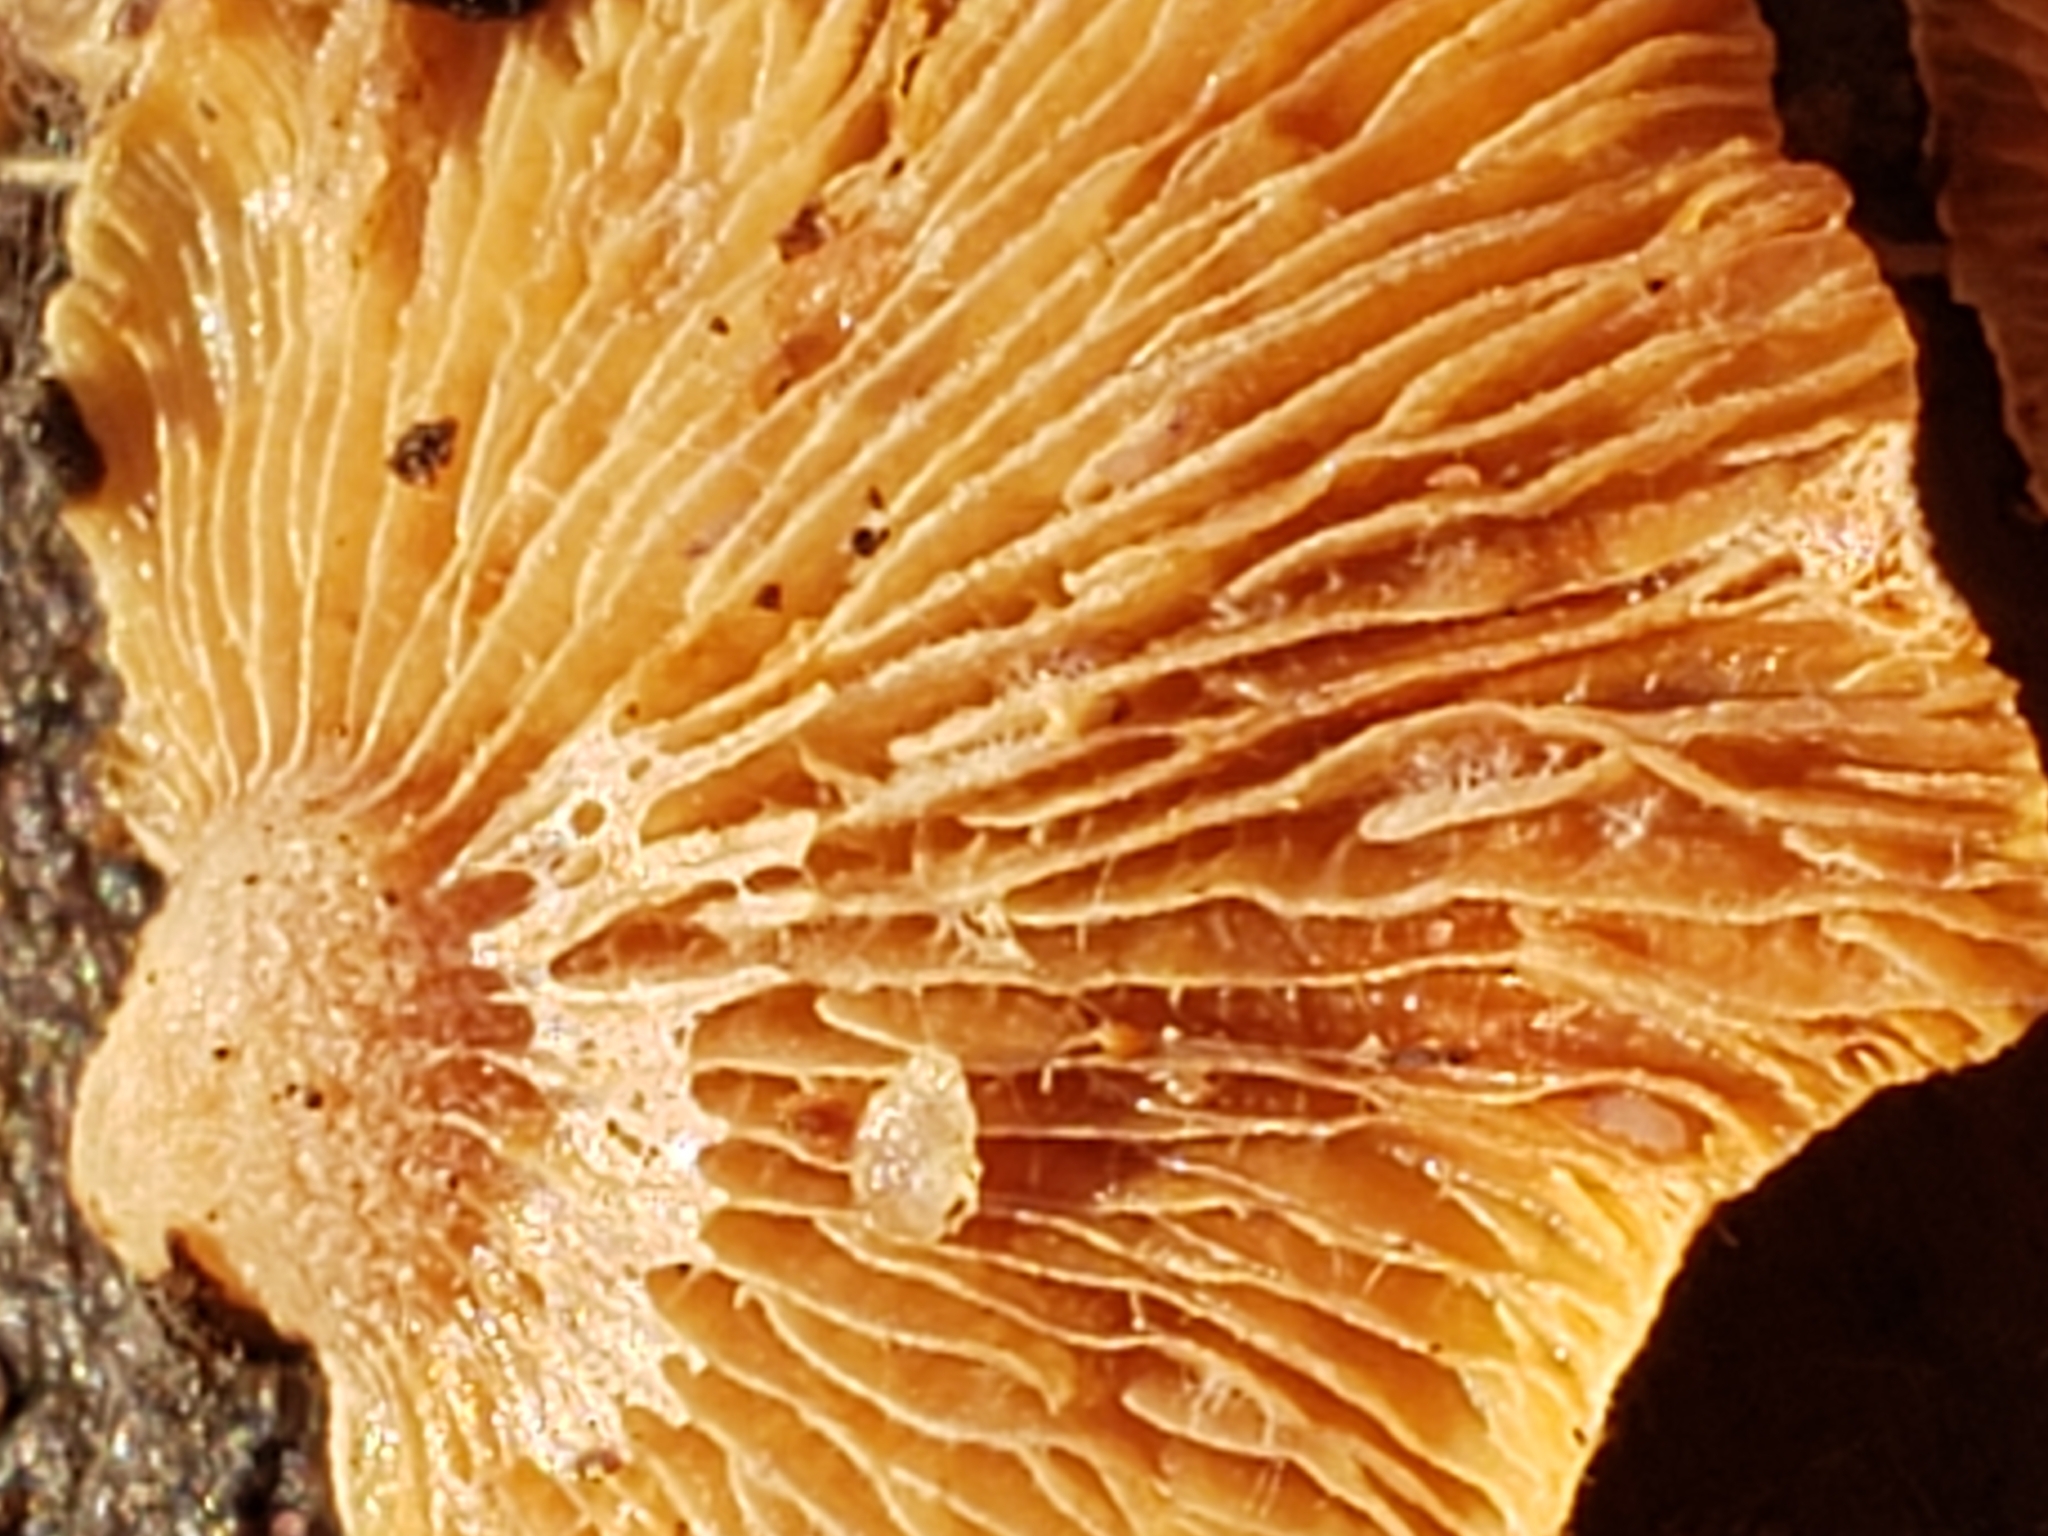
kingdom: Fungi
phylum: Basidiomycota
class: Agaricomycetes
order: Agaricales
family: Phyllotopsidaceae
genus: Phyllotopsis
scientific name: Phyllotopsis nidulans
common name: Orange mock oyster
